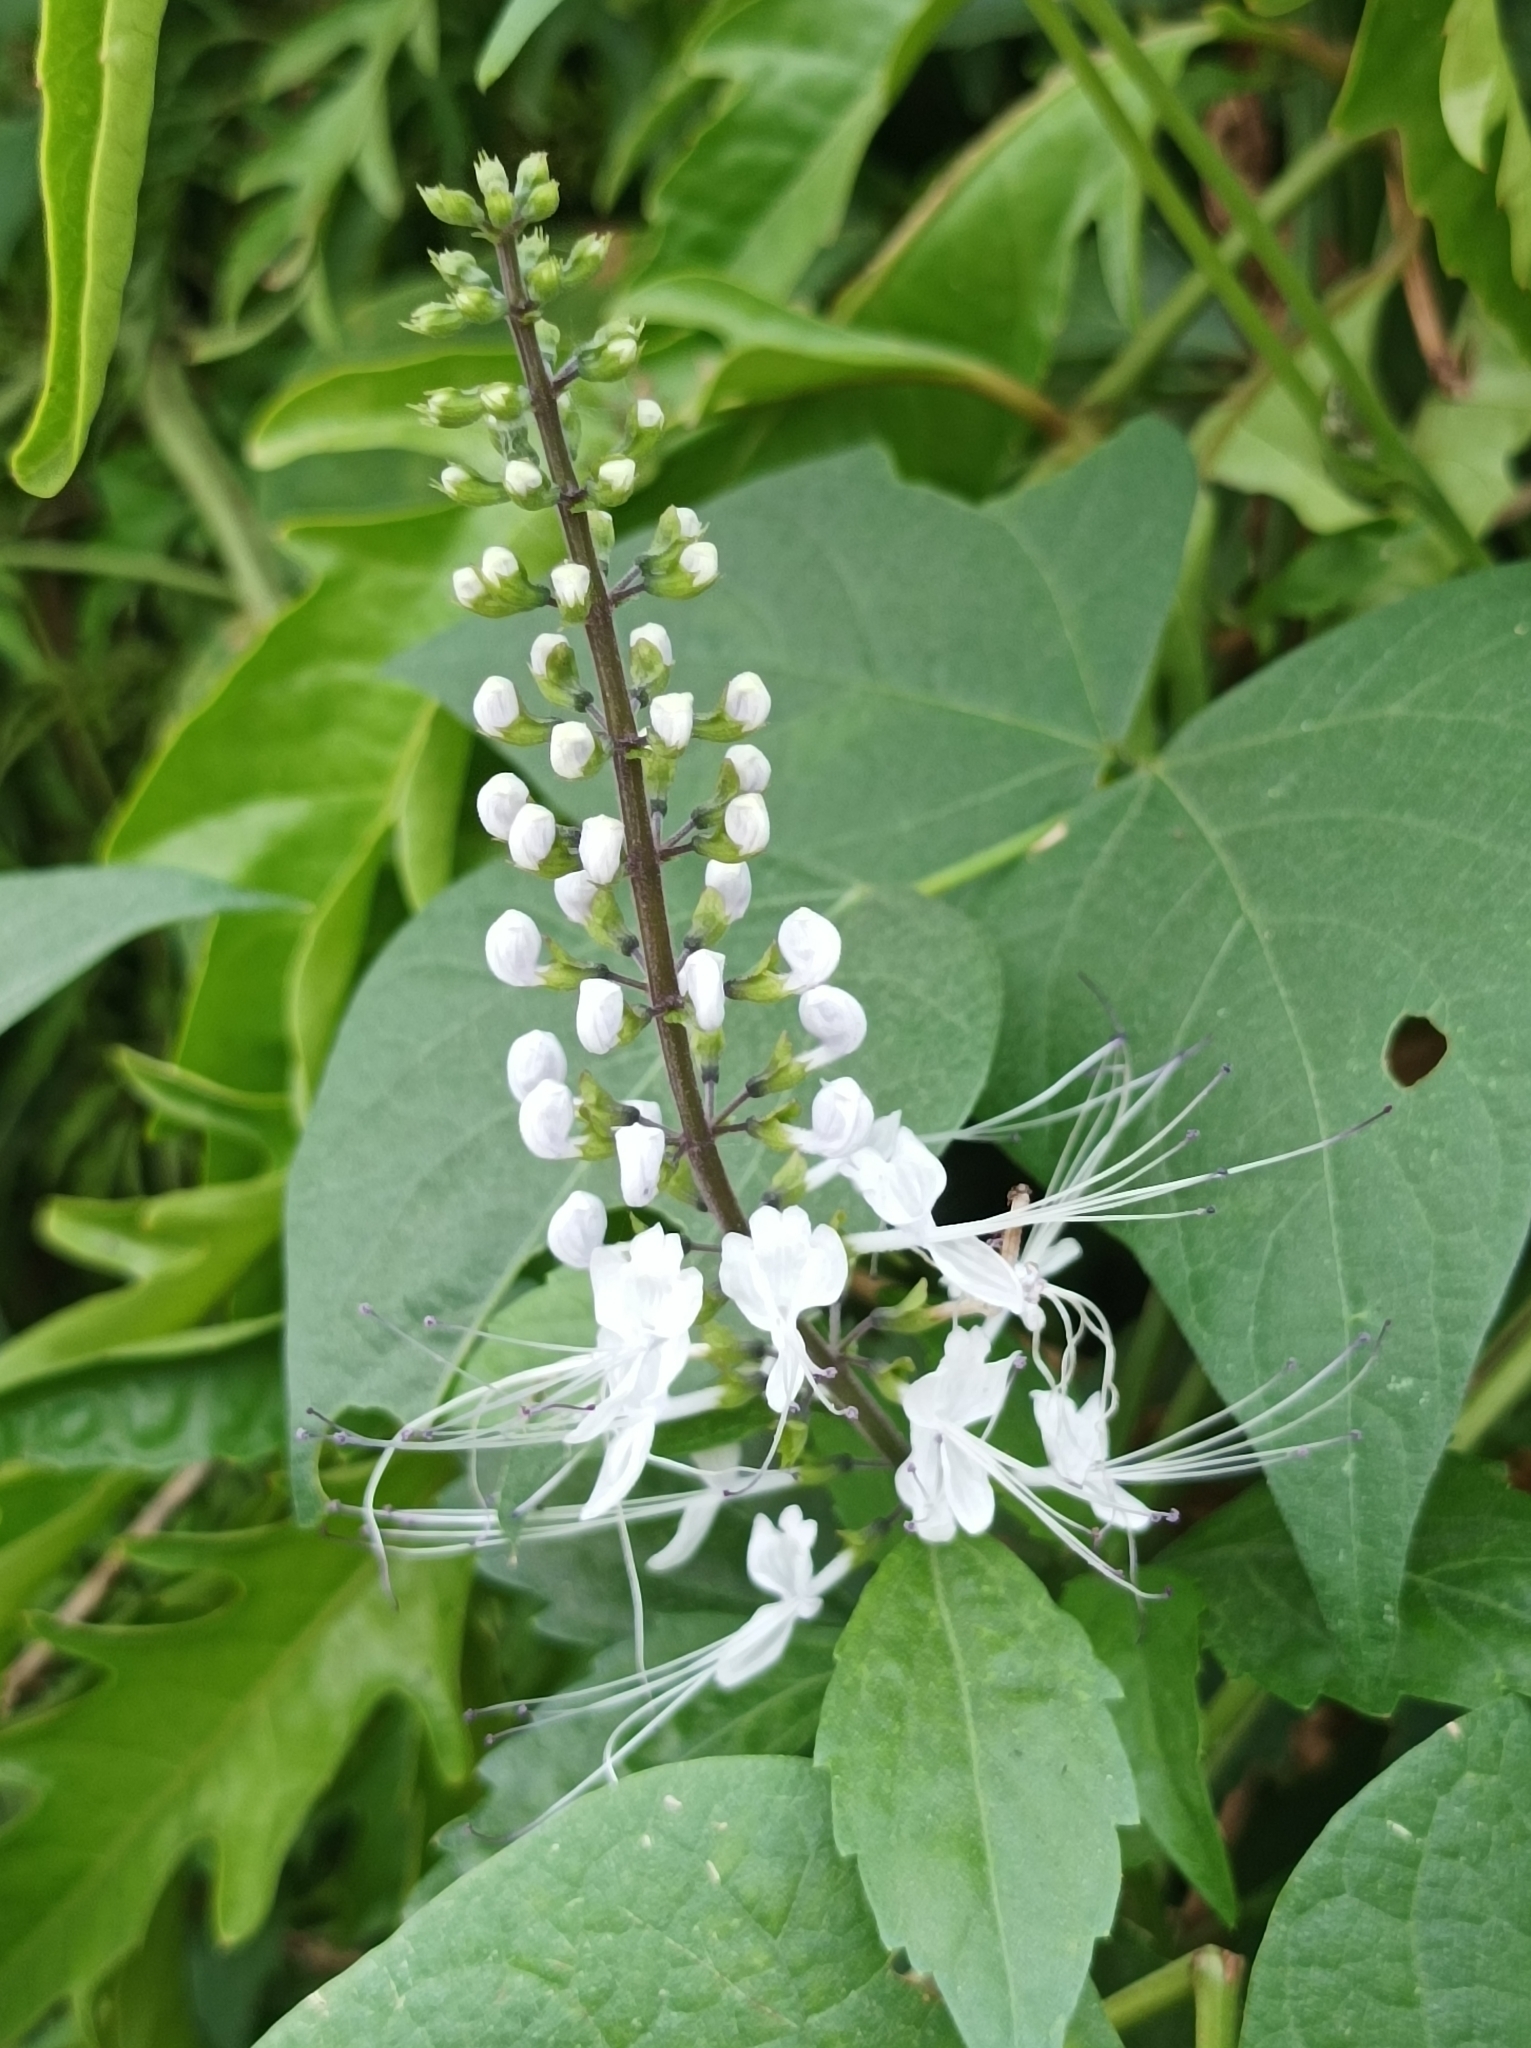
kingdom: Plantae
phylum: Tracheophyta
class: Magnoliopsida
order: Lamiales
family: Lamiaceae
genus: Orthosiphon
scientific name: Orthosiphon aristatus
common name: Whiskerplant
